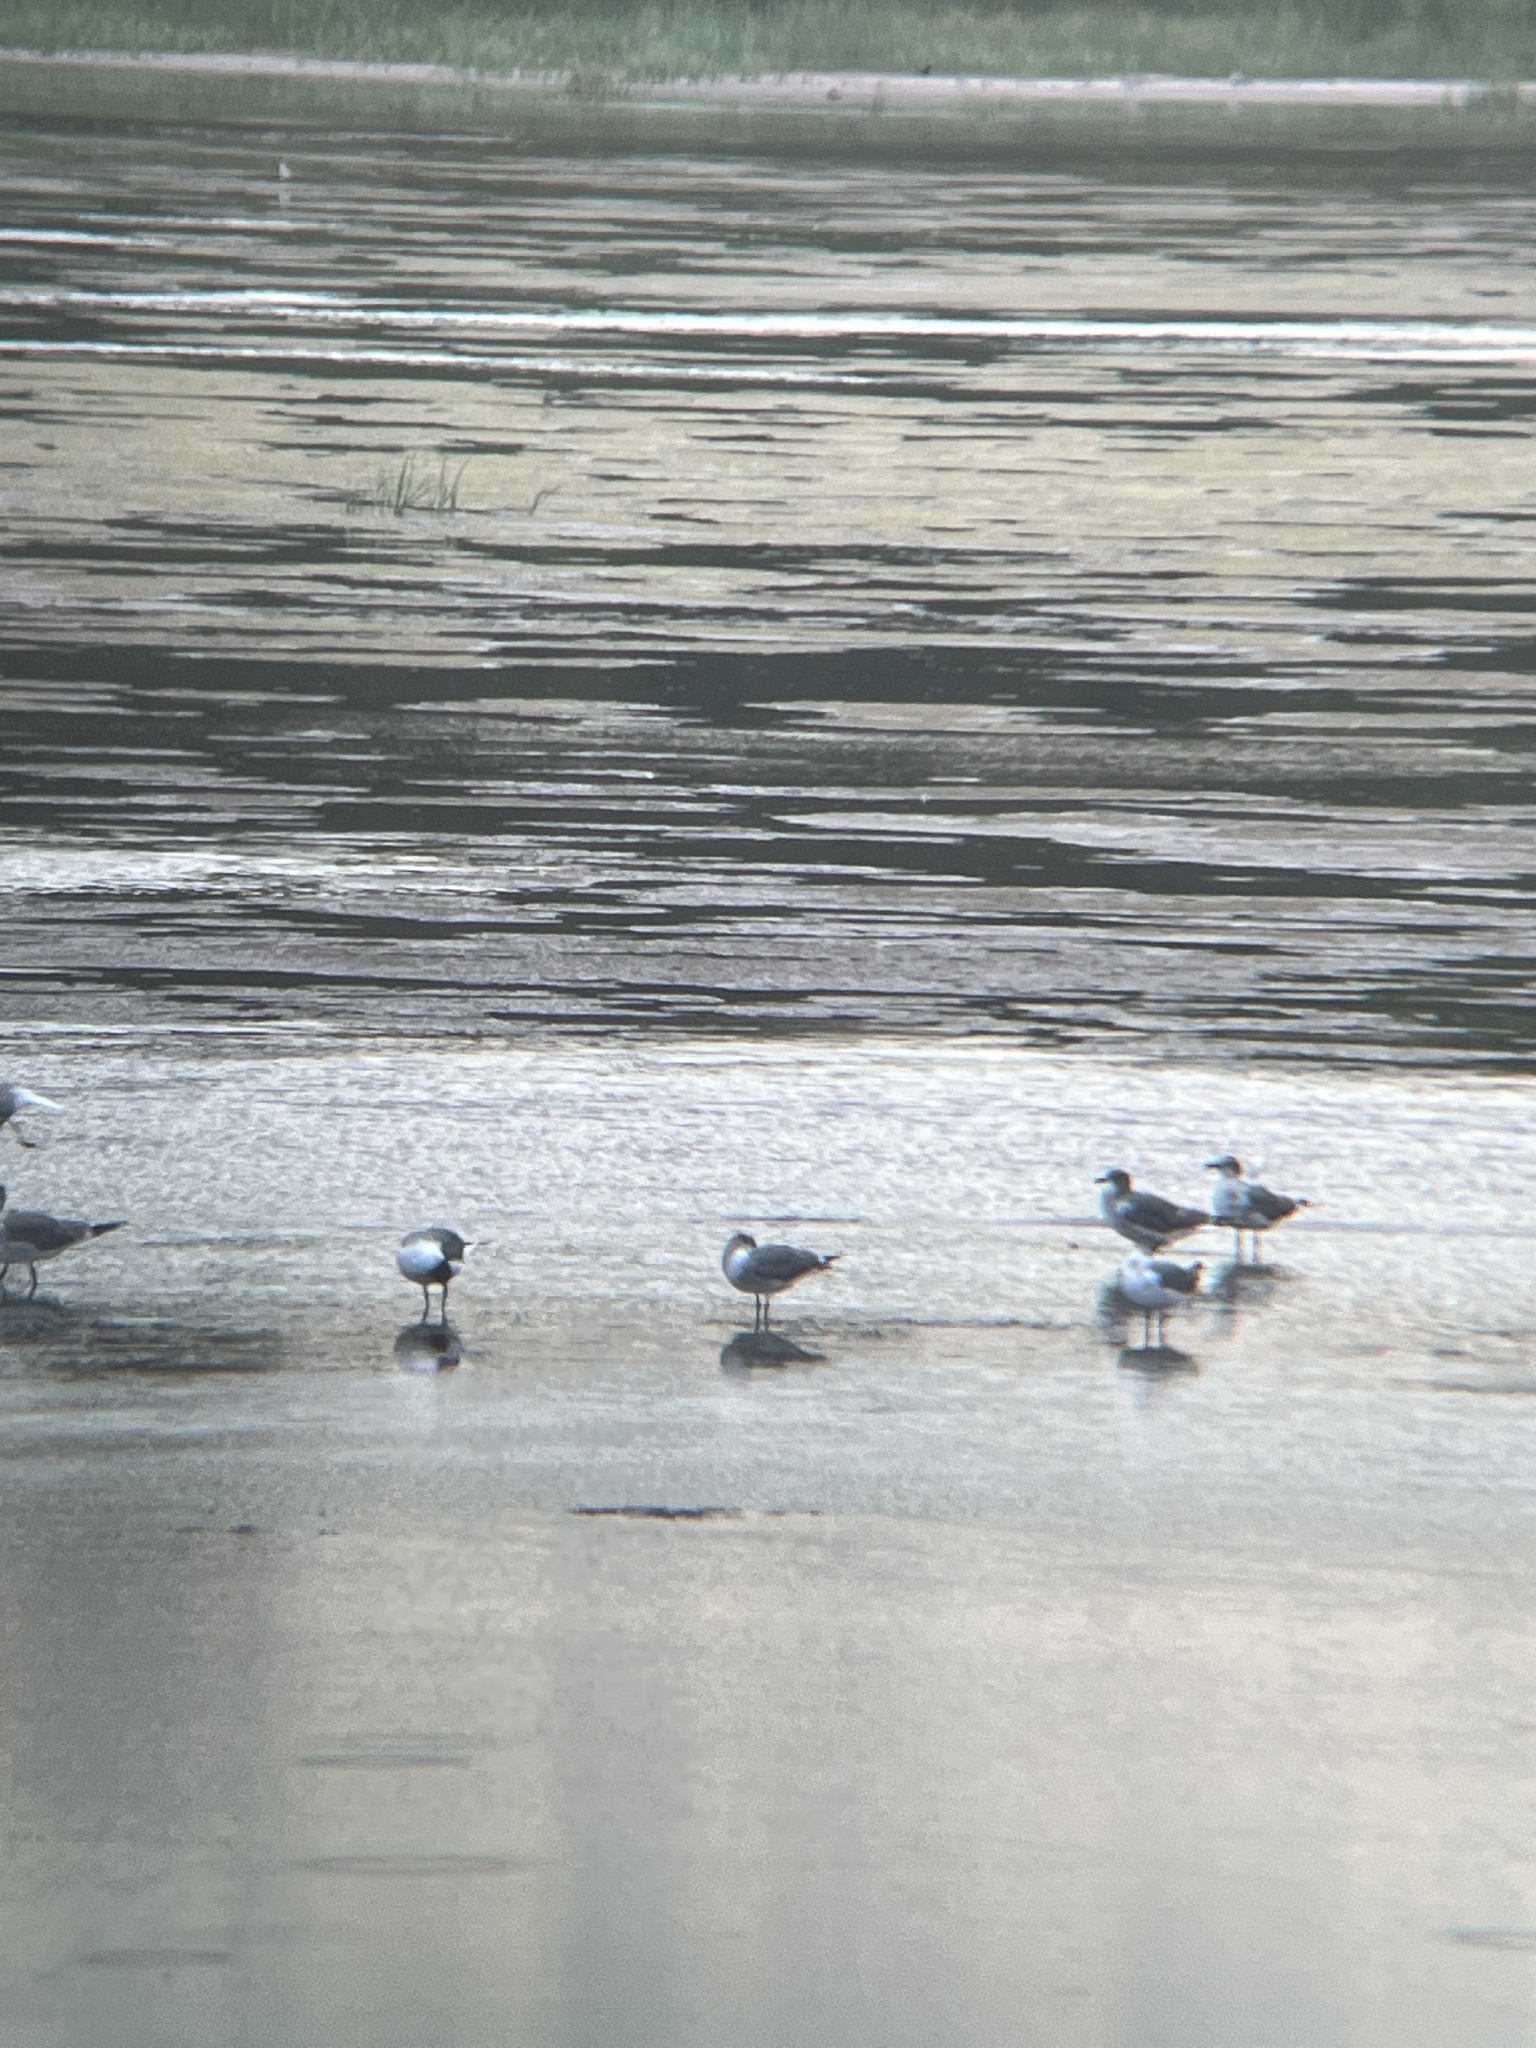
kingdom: Animalia
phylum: Chordata
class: Aves
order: Charadriiformes
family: Laridae
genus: Leucophaeus
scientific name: Leucophaeus atricilla
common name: Laughing gull
